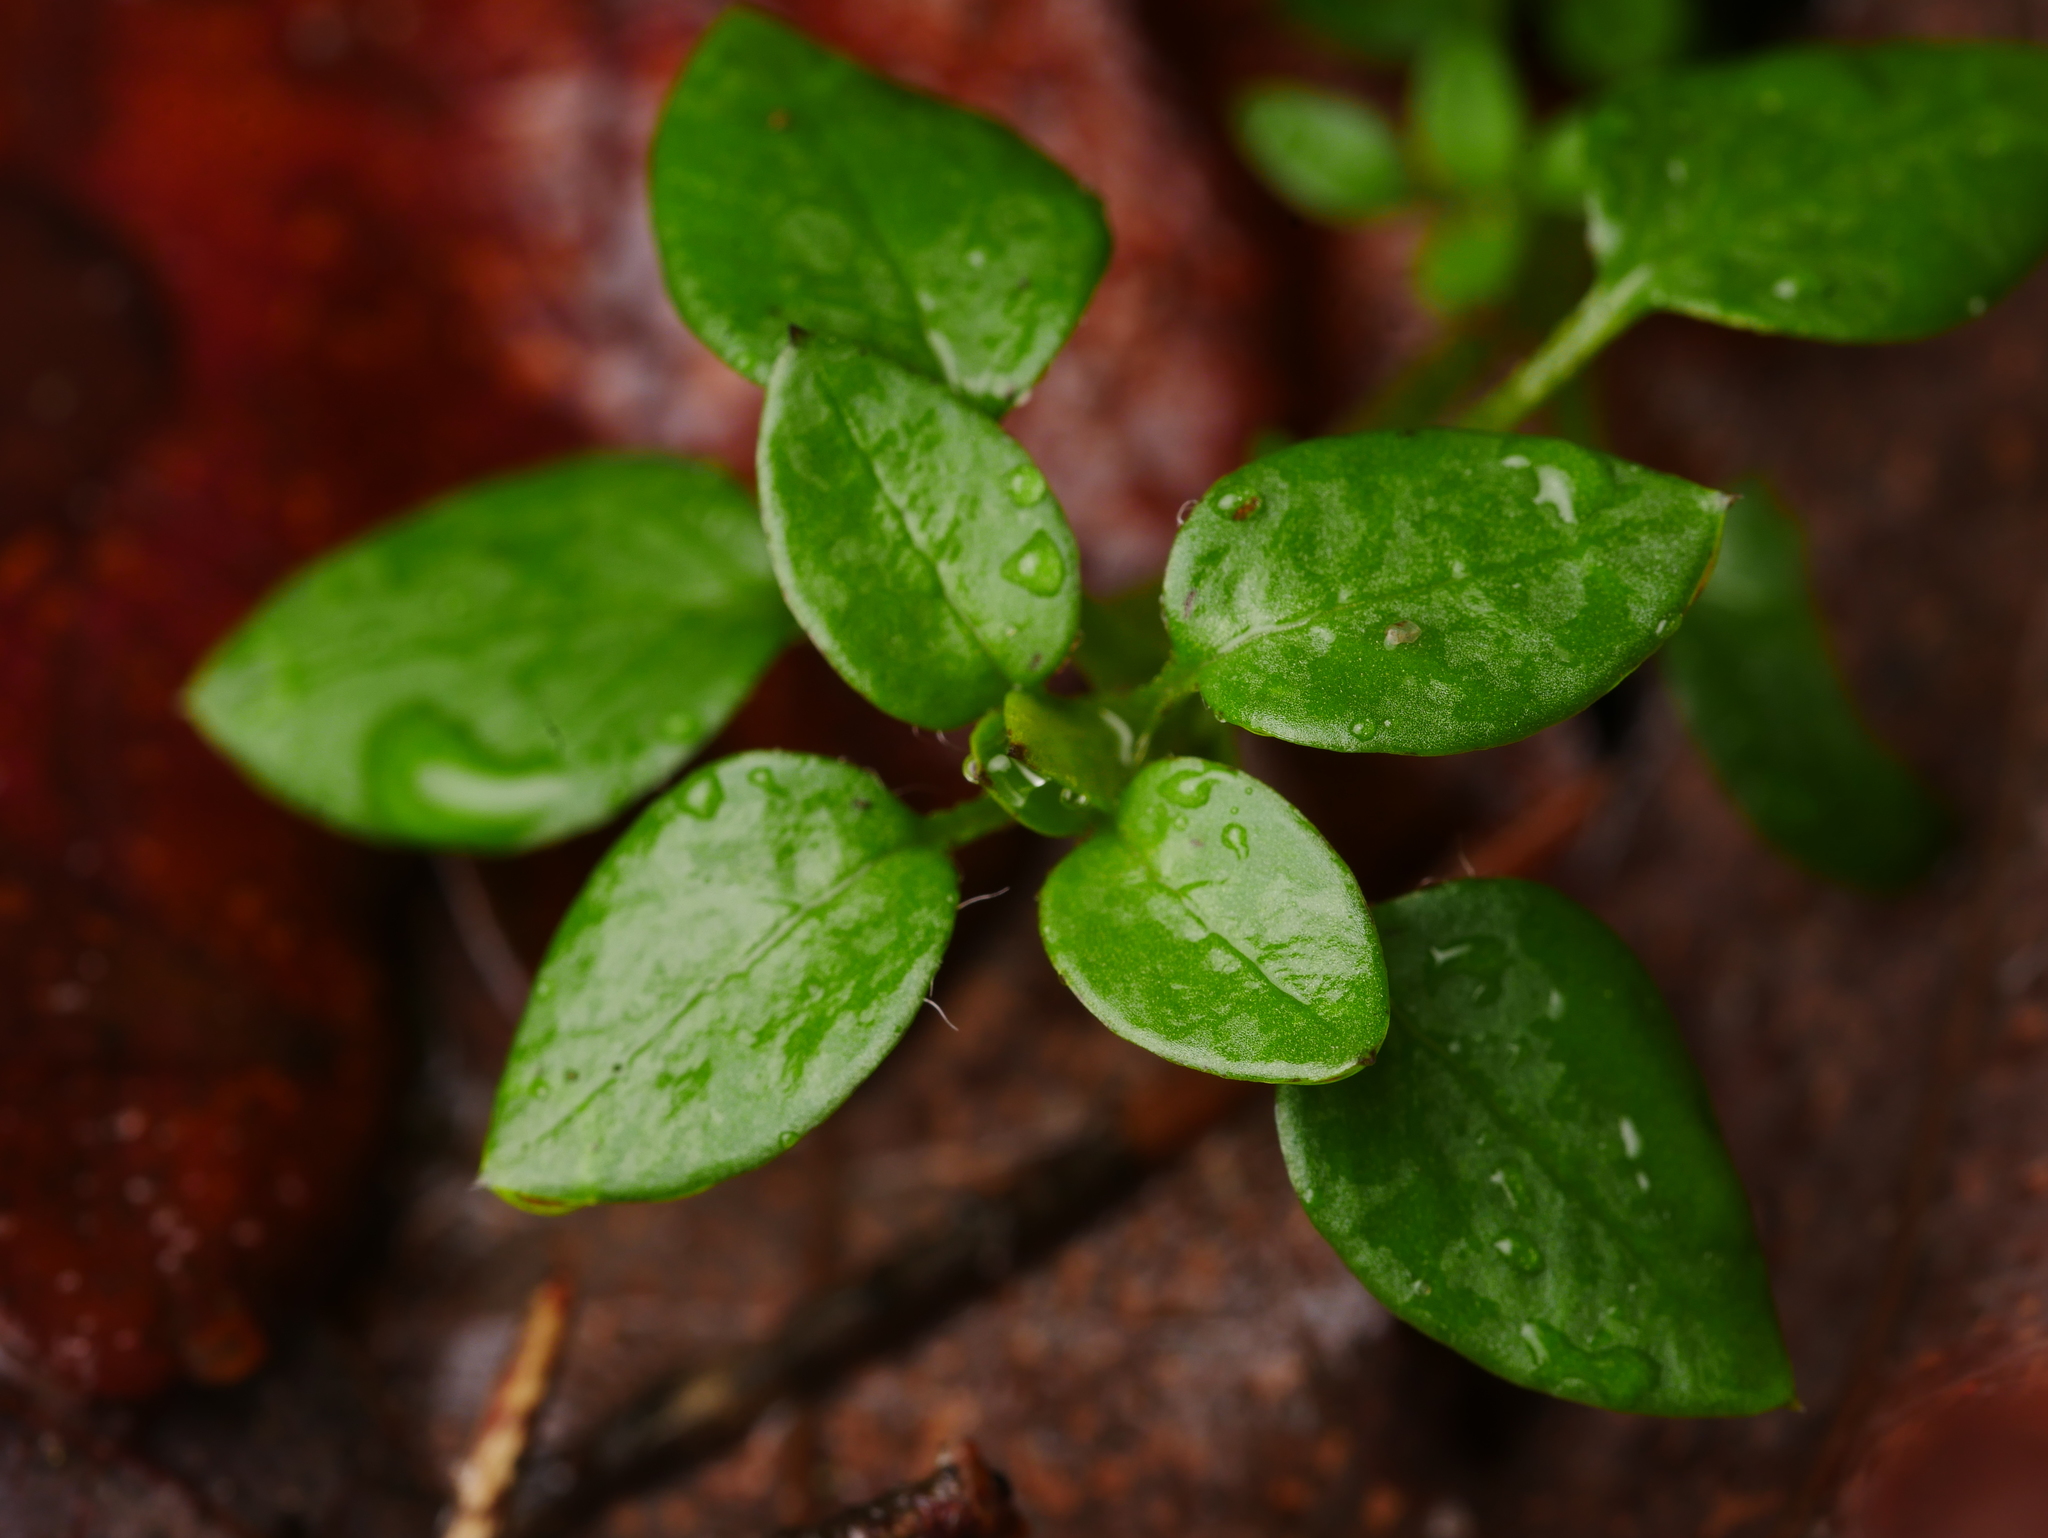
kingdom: Plantae
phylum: Tracheophyta
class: Magnoliopsida
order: Caryophyllales
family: Caryophyllaceae
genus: Stellaria
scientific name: Stellaria media
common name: Common chickweed
